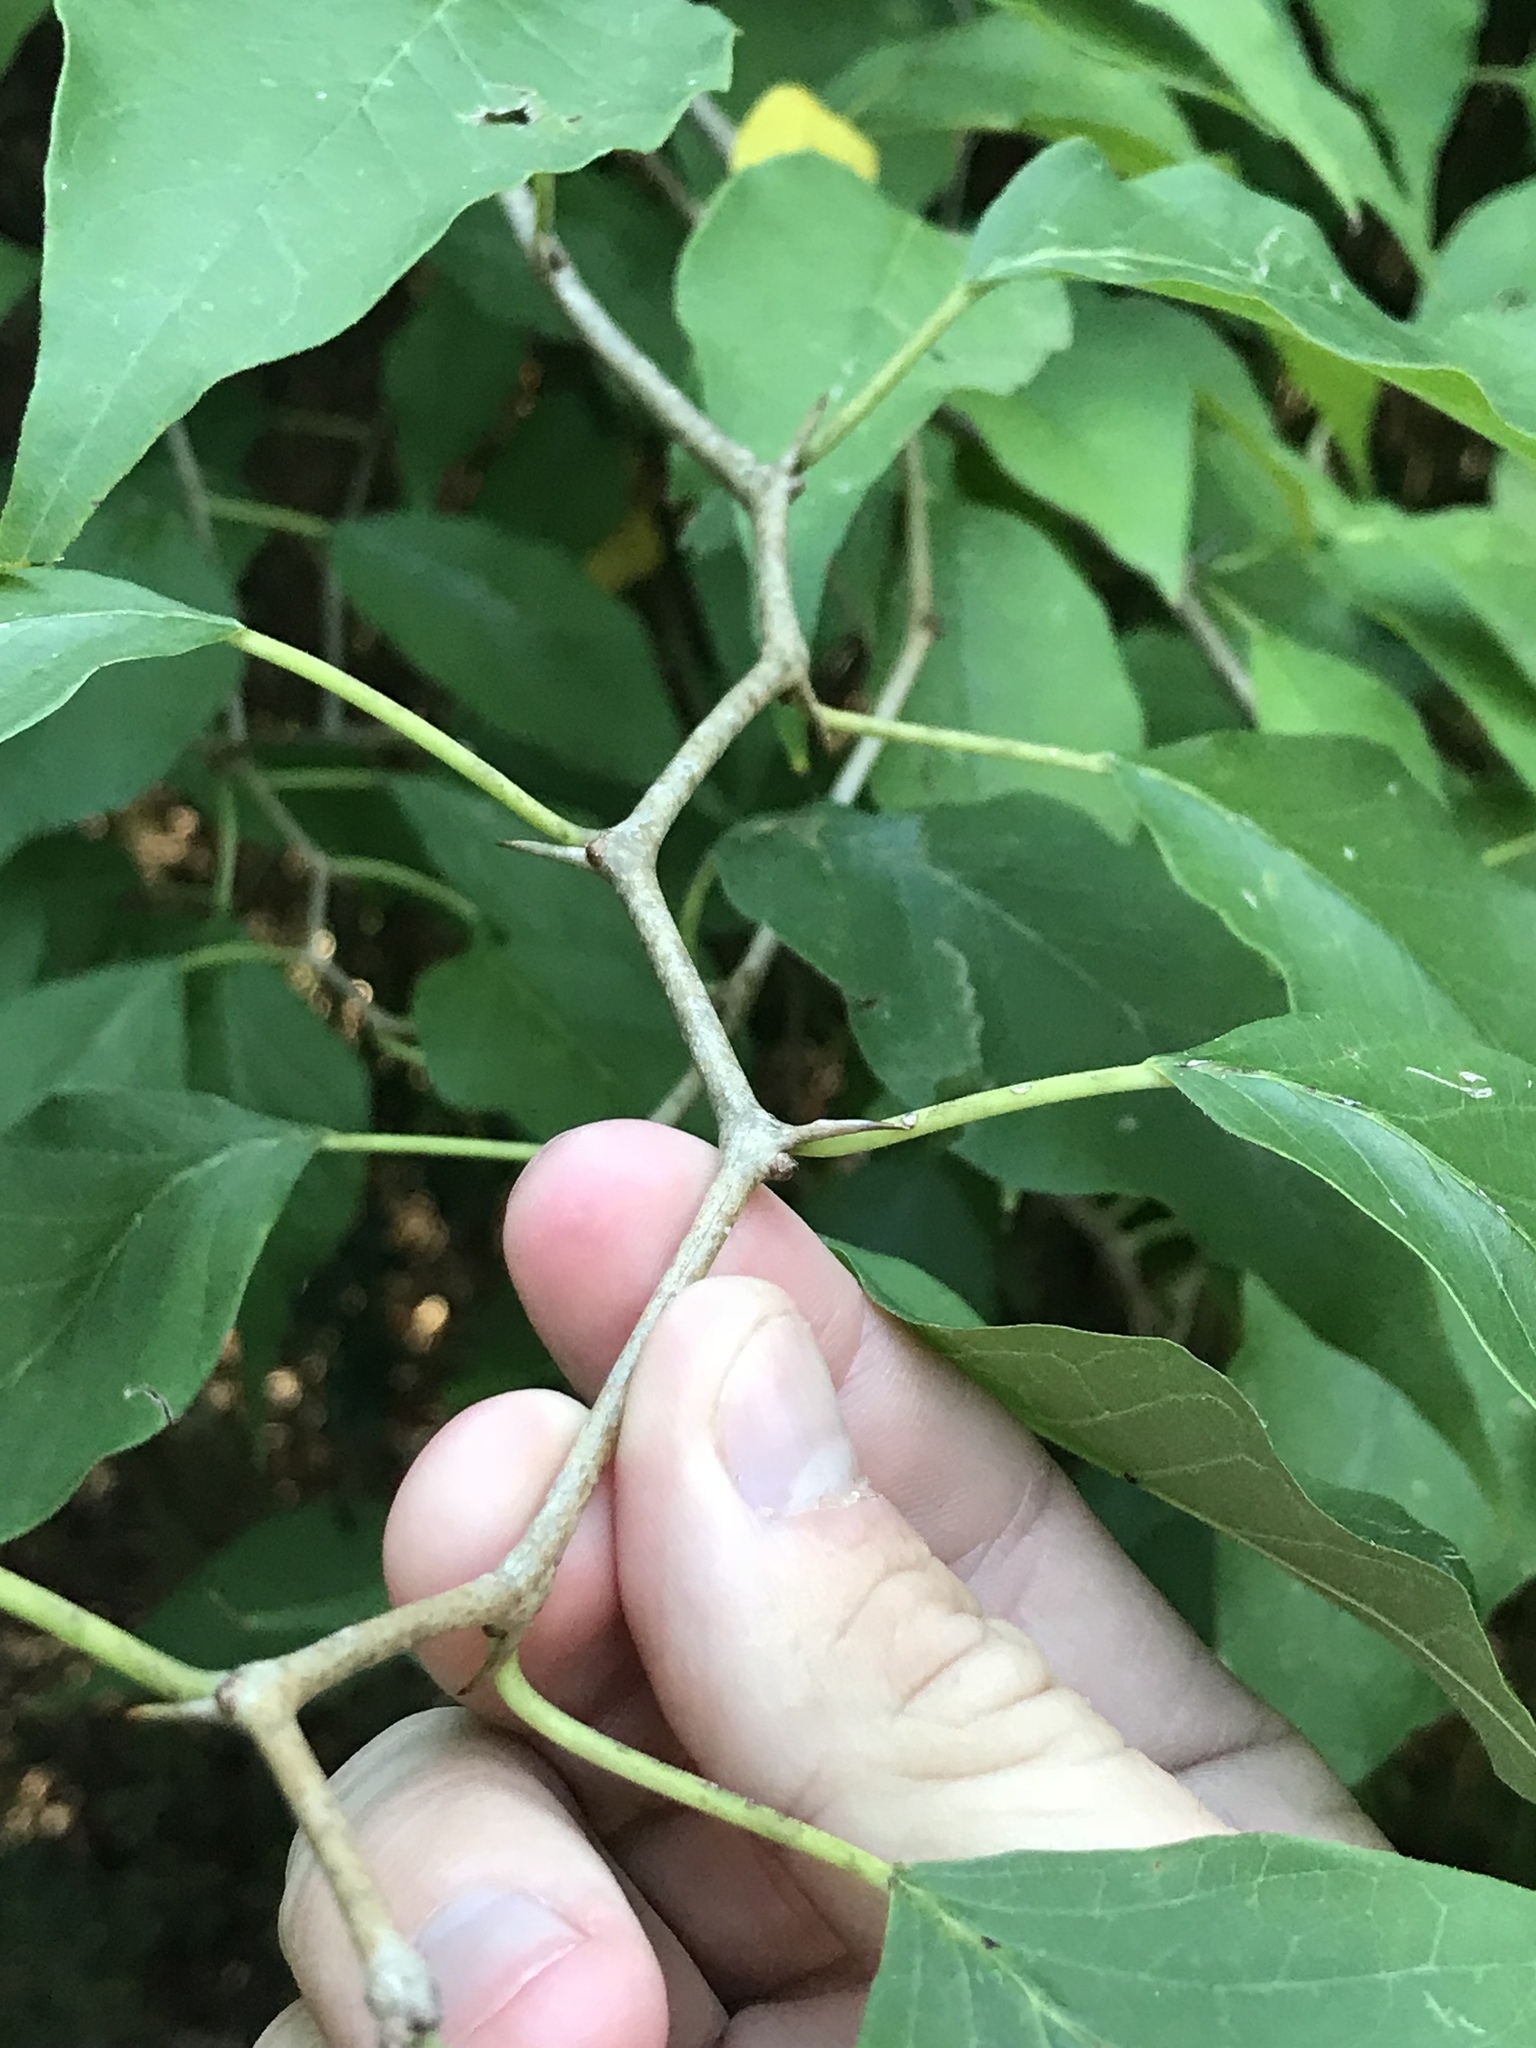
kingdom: Plantae
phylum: Tracheophyta
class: Magnoliopsida
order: Rosales
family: Moraceae
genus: Maclura
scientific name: Maclura pomifera
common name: Osage-orange
